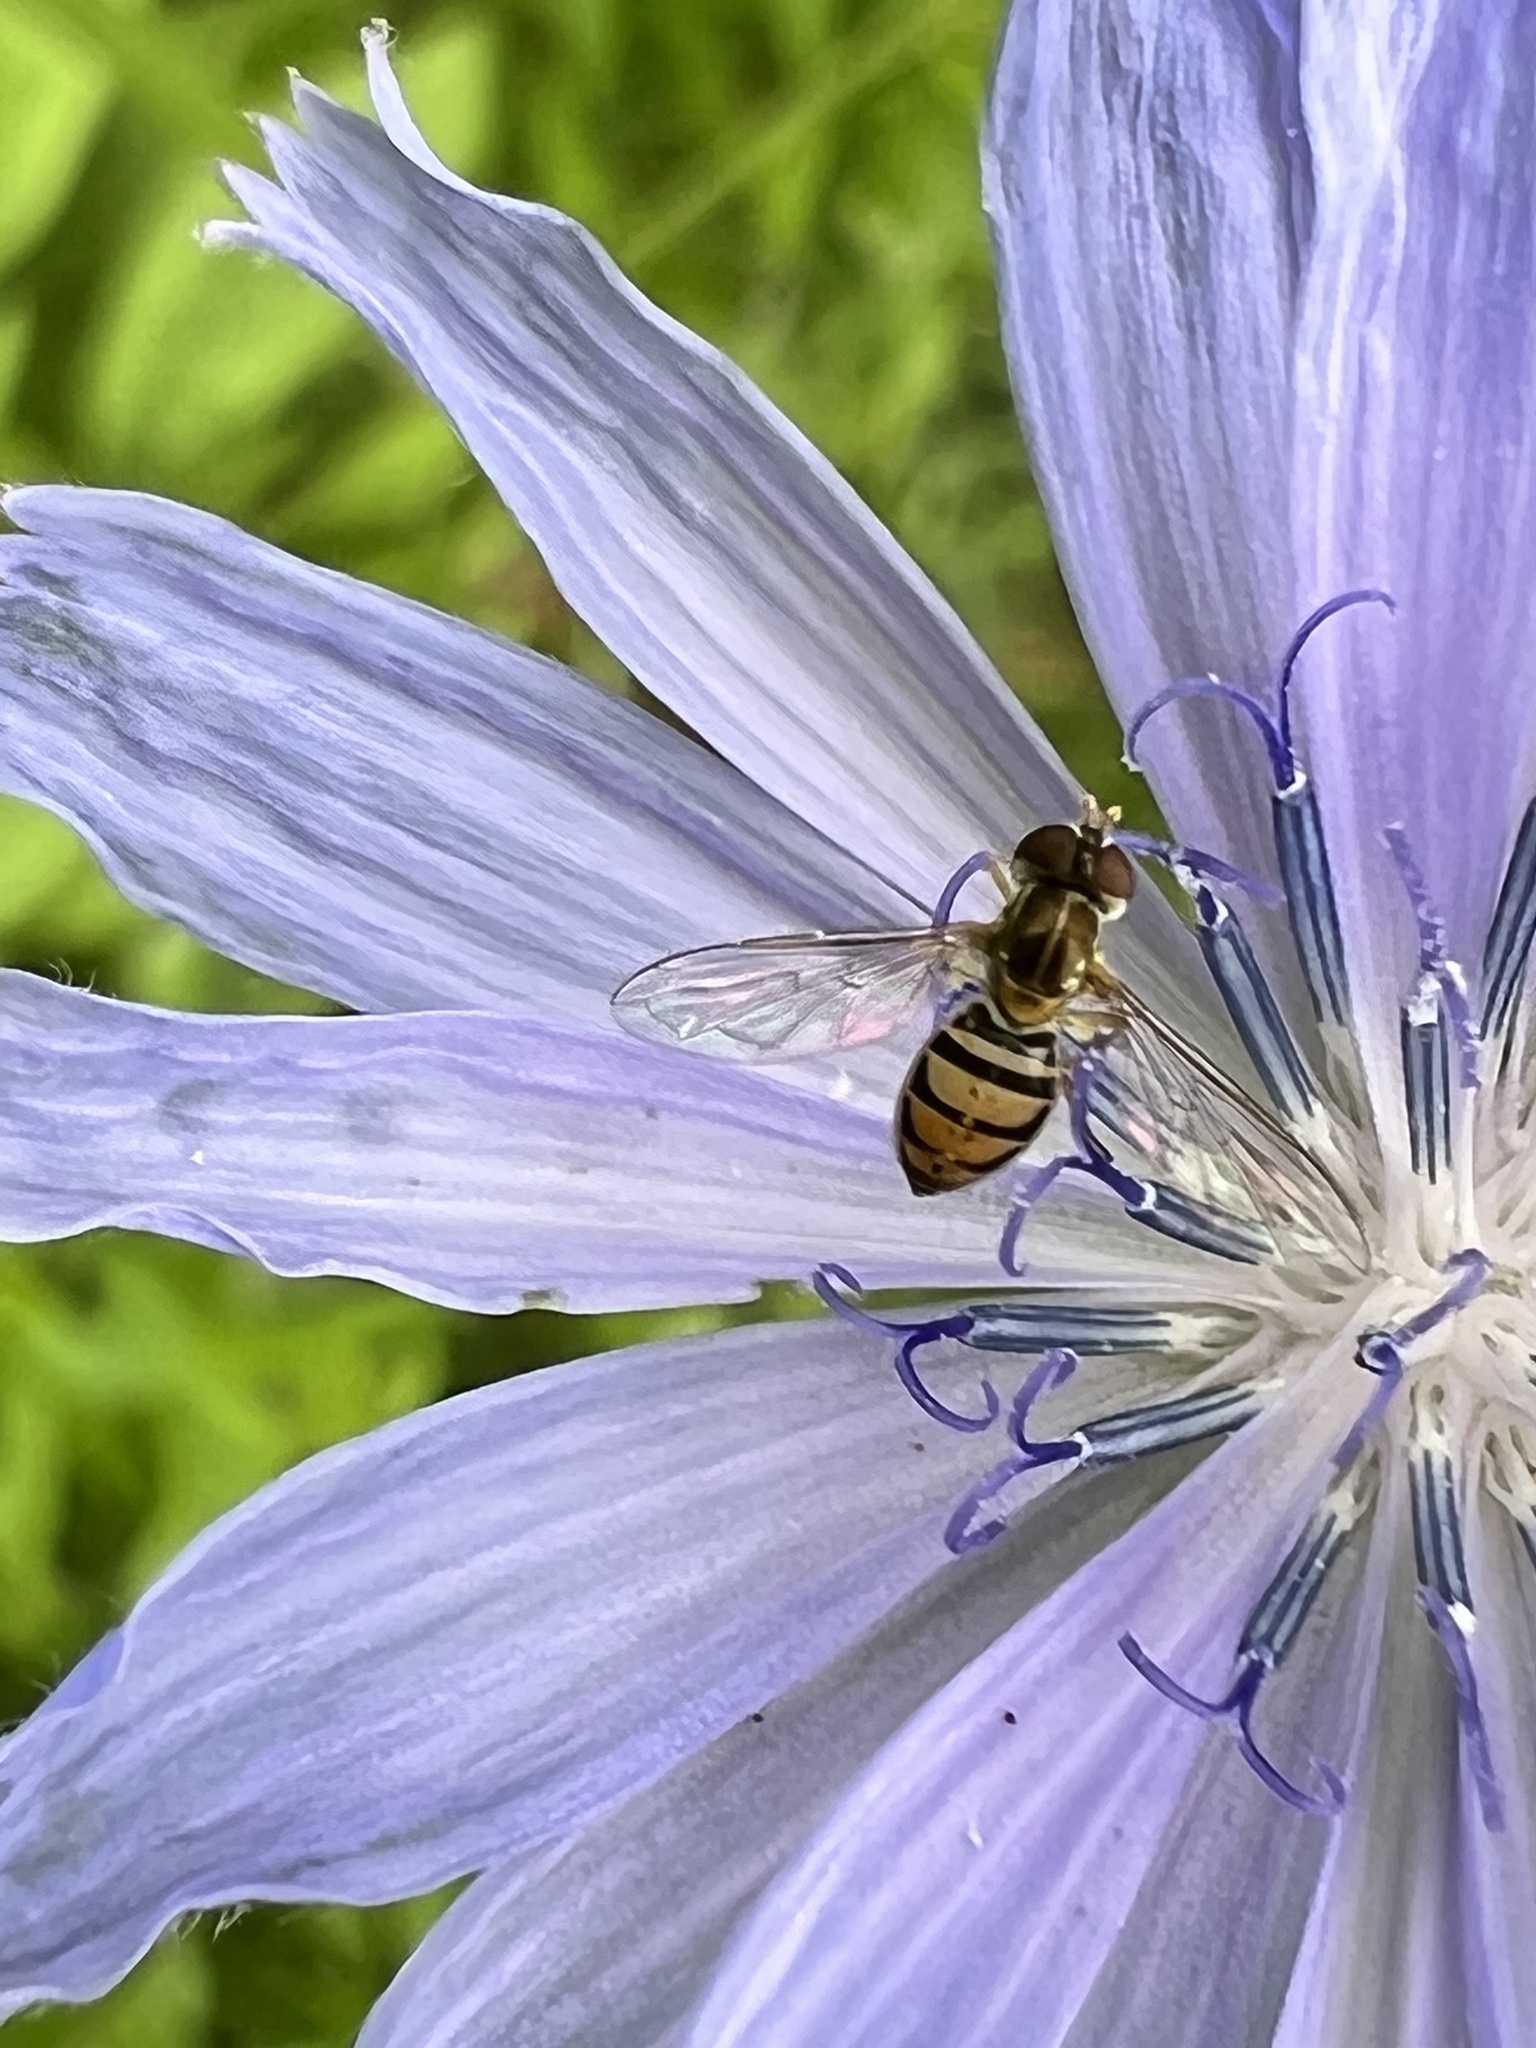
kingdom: Animalia
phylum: Arthropoda
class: Insecta
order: Diptera
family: Syrphidae
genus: Toxomerus
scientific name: Toxomerus marginatus
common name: Syrphid fly
